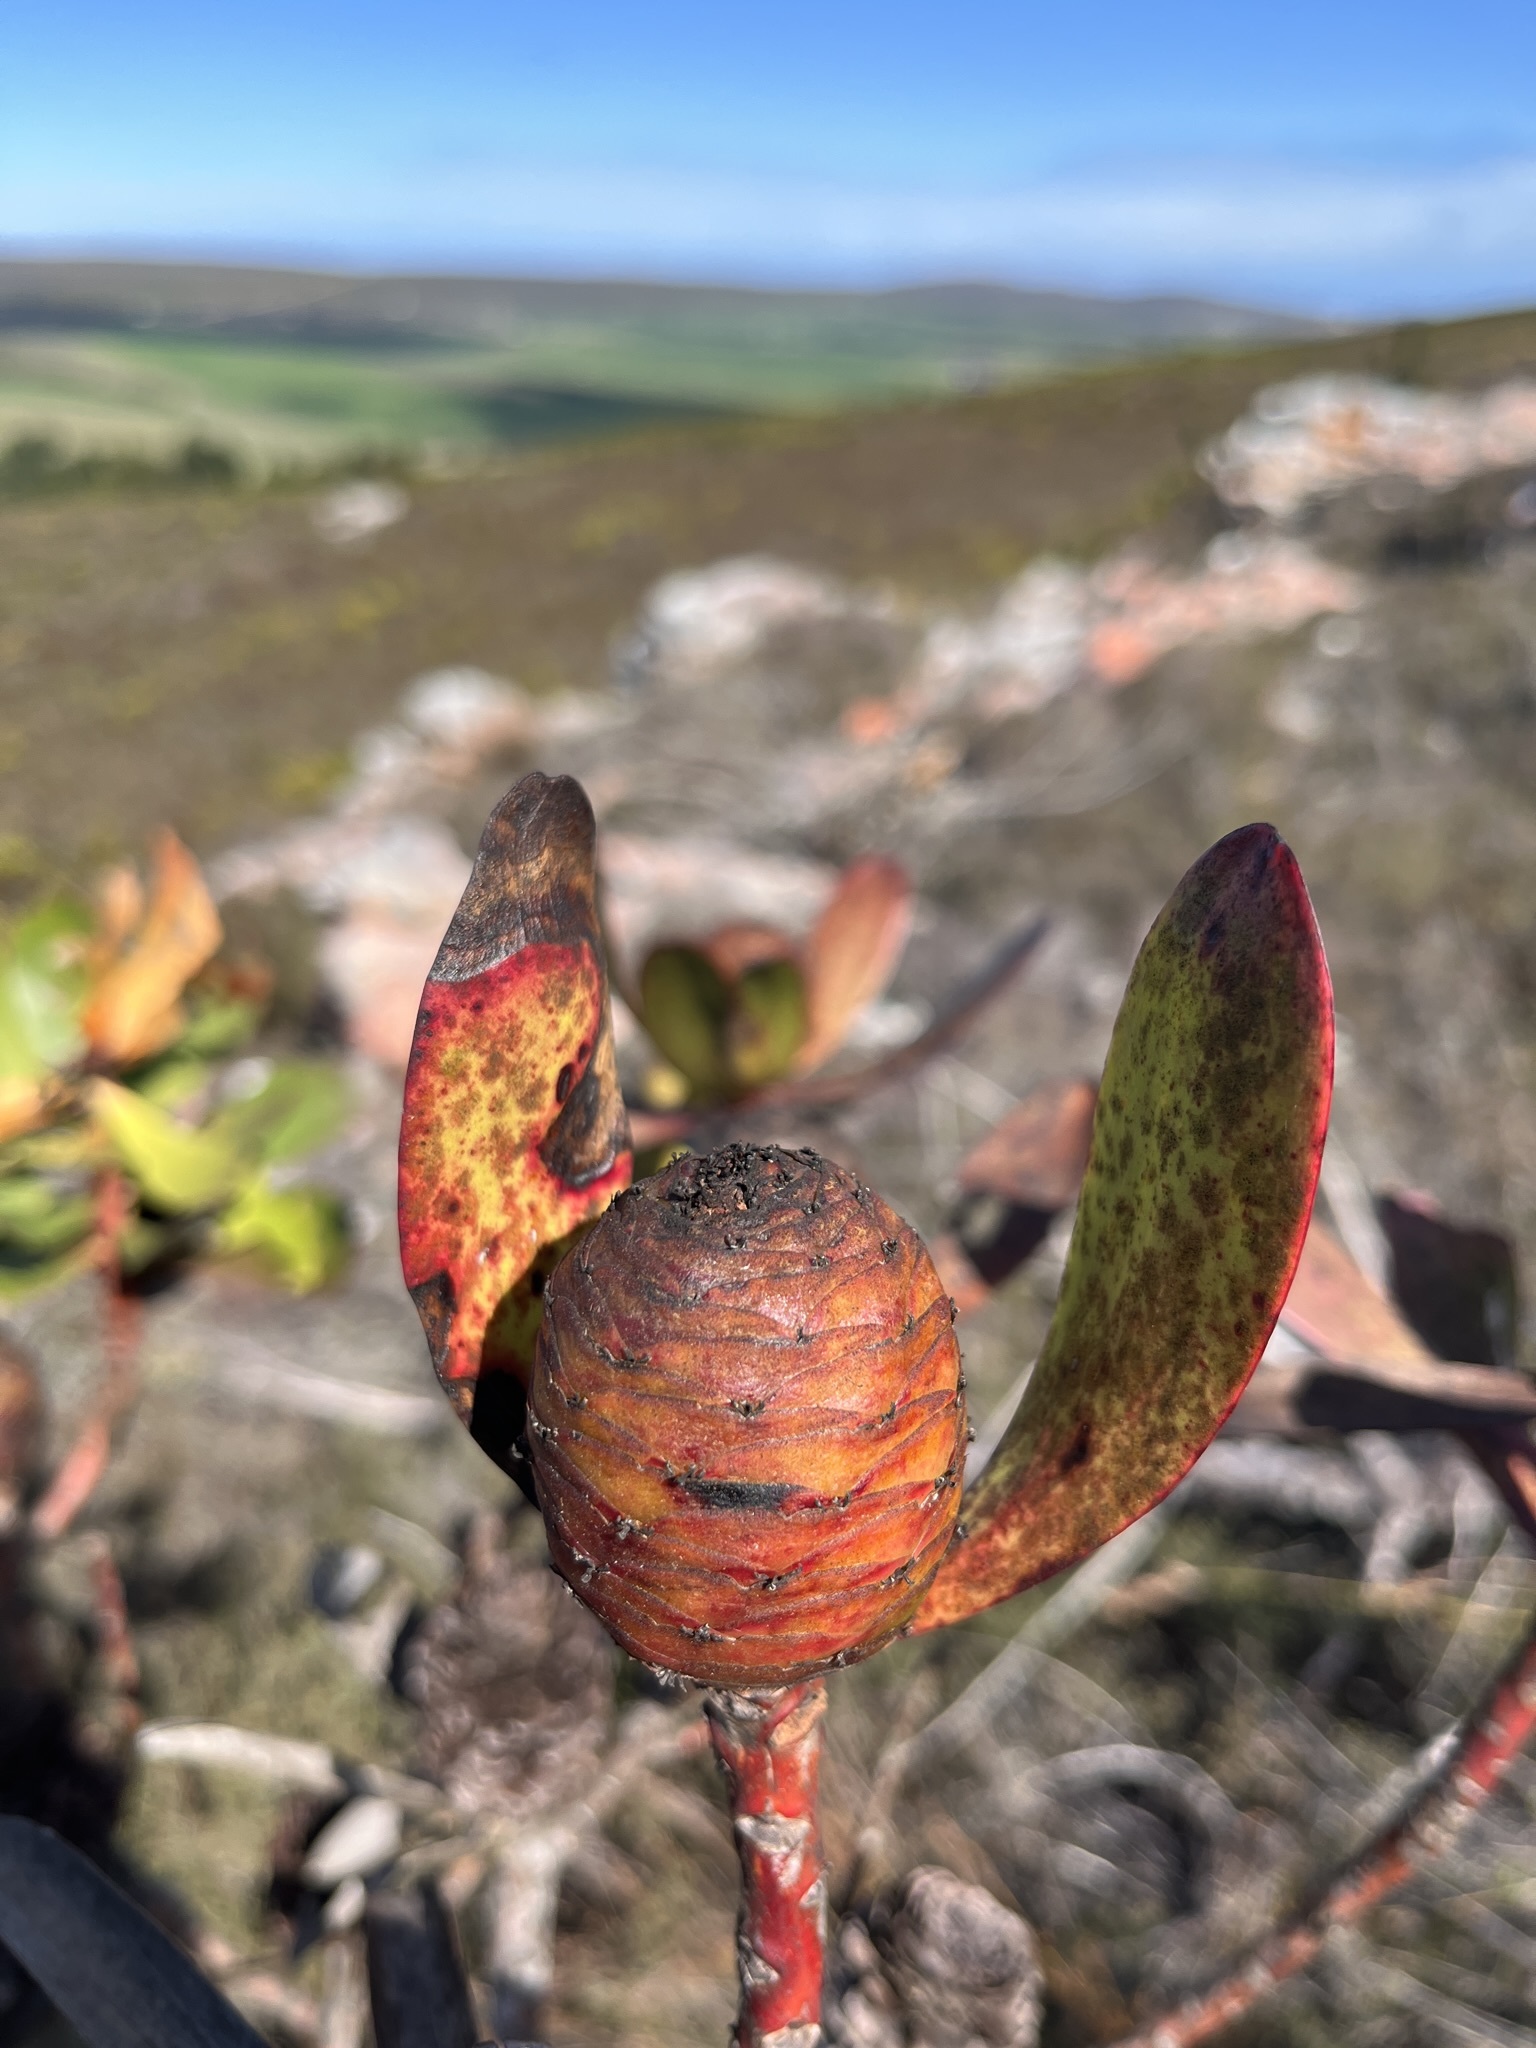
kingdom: Plantae
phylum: Tracheophyta
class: Magnoliopsida
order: Proteales
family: Proteaceae
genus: Leucadendron
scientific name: Leucadendron gandogeri
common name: Broad-leaf conebush
